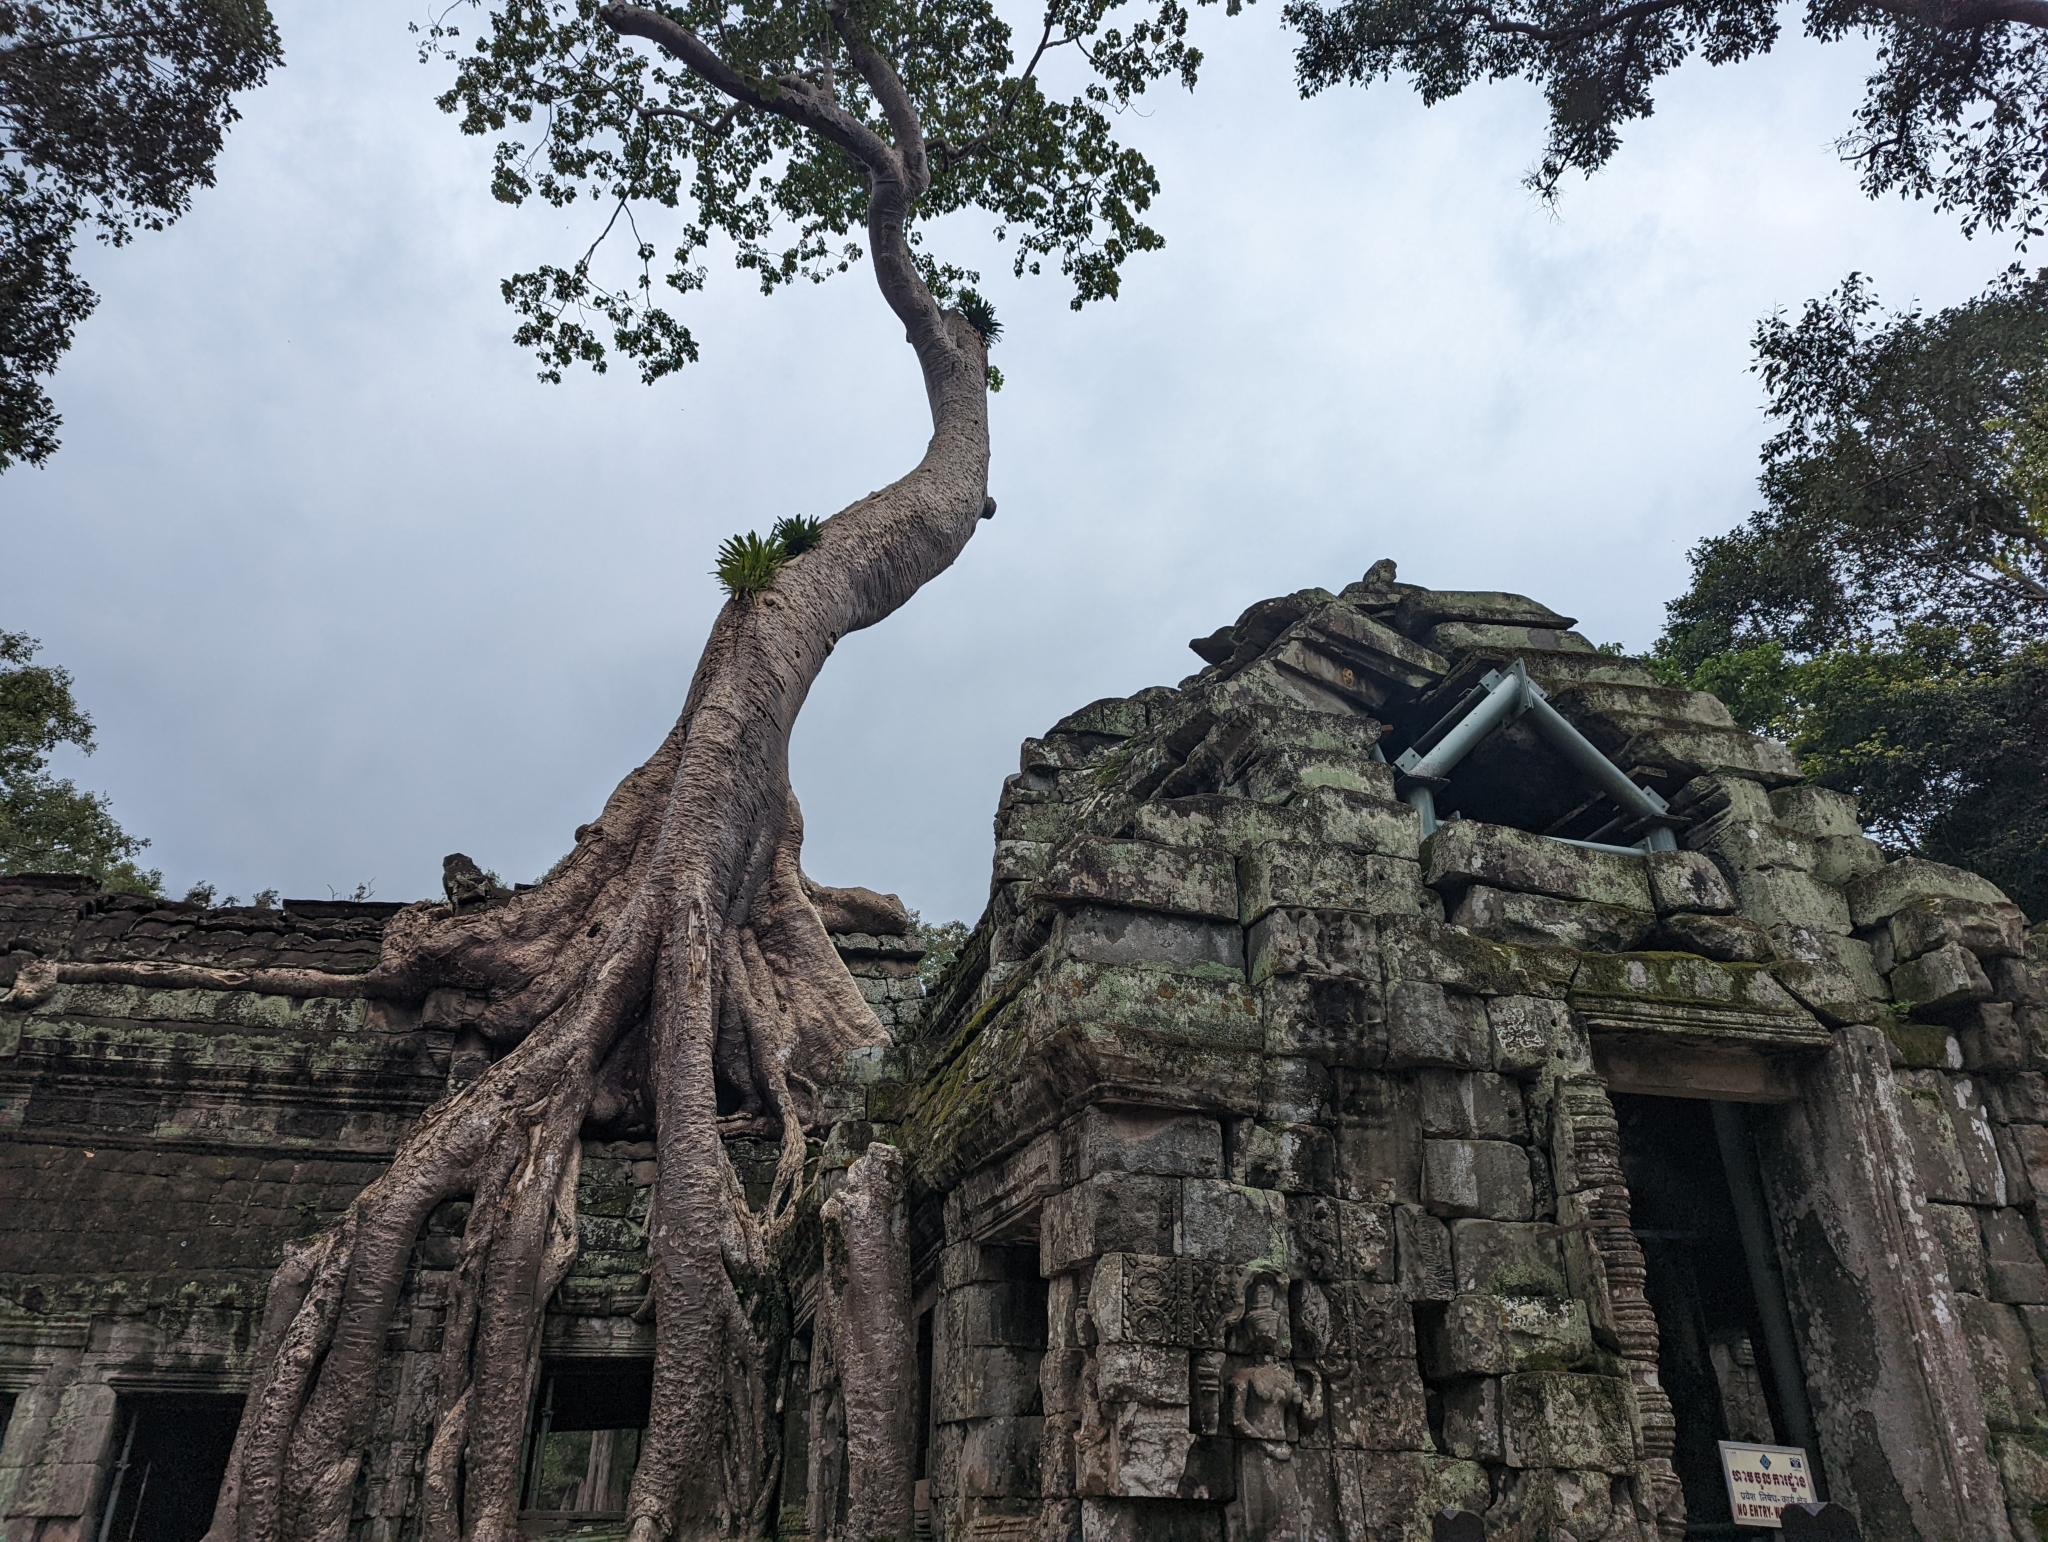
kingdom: Plantae
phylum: Tracheophyta
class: Magnoliopsida
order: Cucurbitales
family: Tetramelaceae
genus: Tetrameles
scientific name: Tetrameles nudiflora
